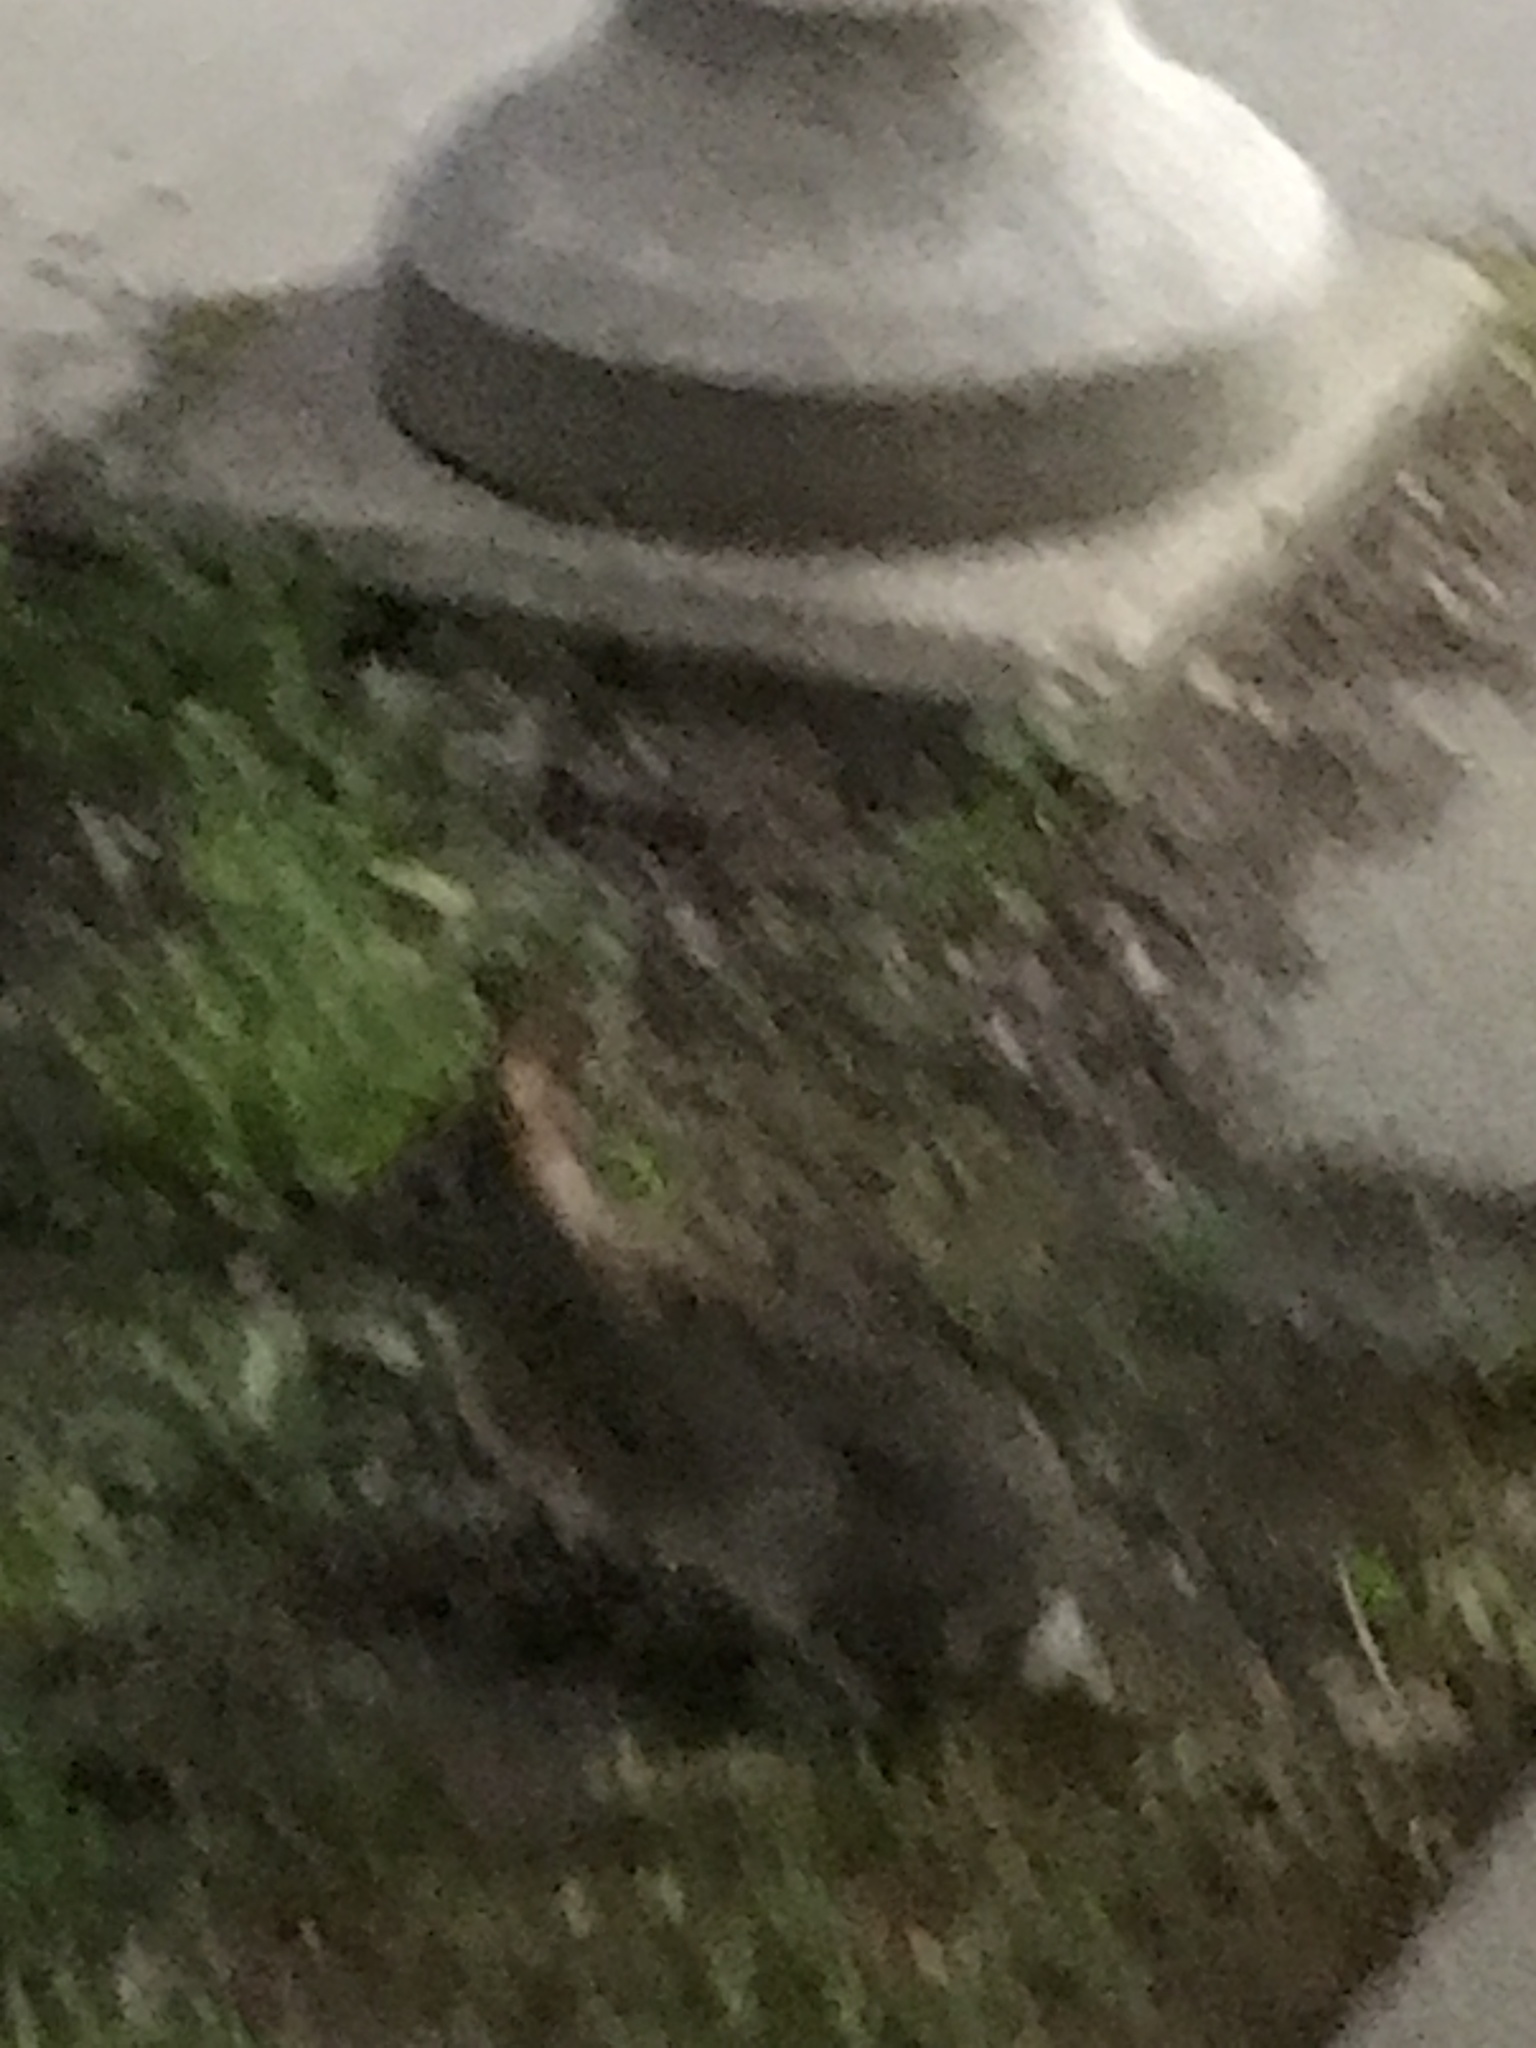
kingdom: Animalia
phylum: Chordata
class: Mammalia
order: Lagomorpha
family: Leporidae
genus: Sylvilagus
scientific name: Sylvilagus floridanus
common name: Eastern cottontail
